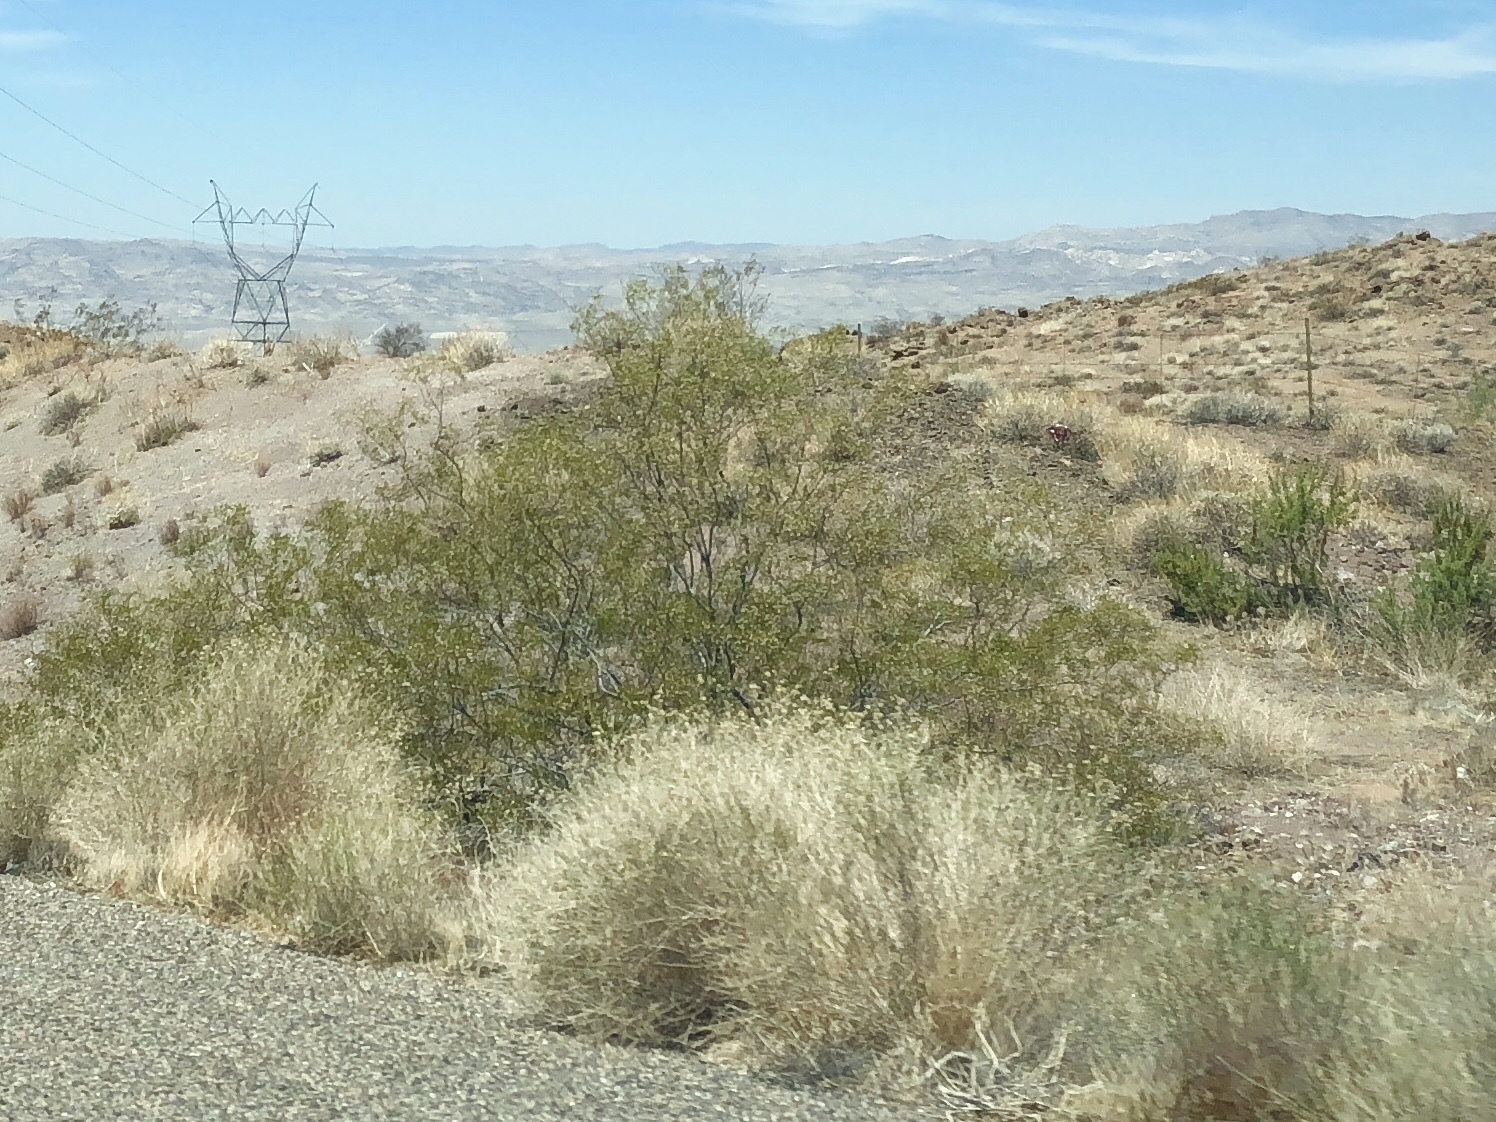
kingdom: Plantae
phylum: Tracheophyta
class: Magnoliopsida
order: Zygophyllales
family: Zygophyllaceae
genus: Larrea
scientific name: Larrea tridentata
